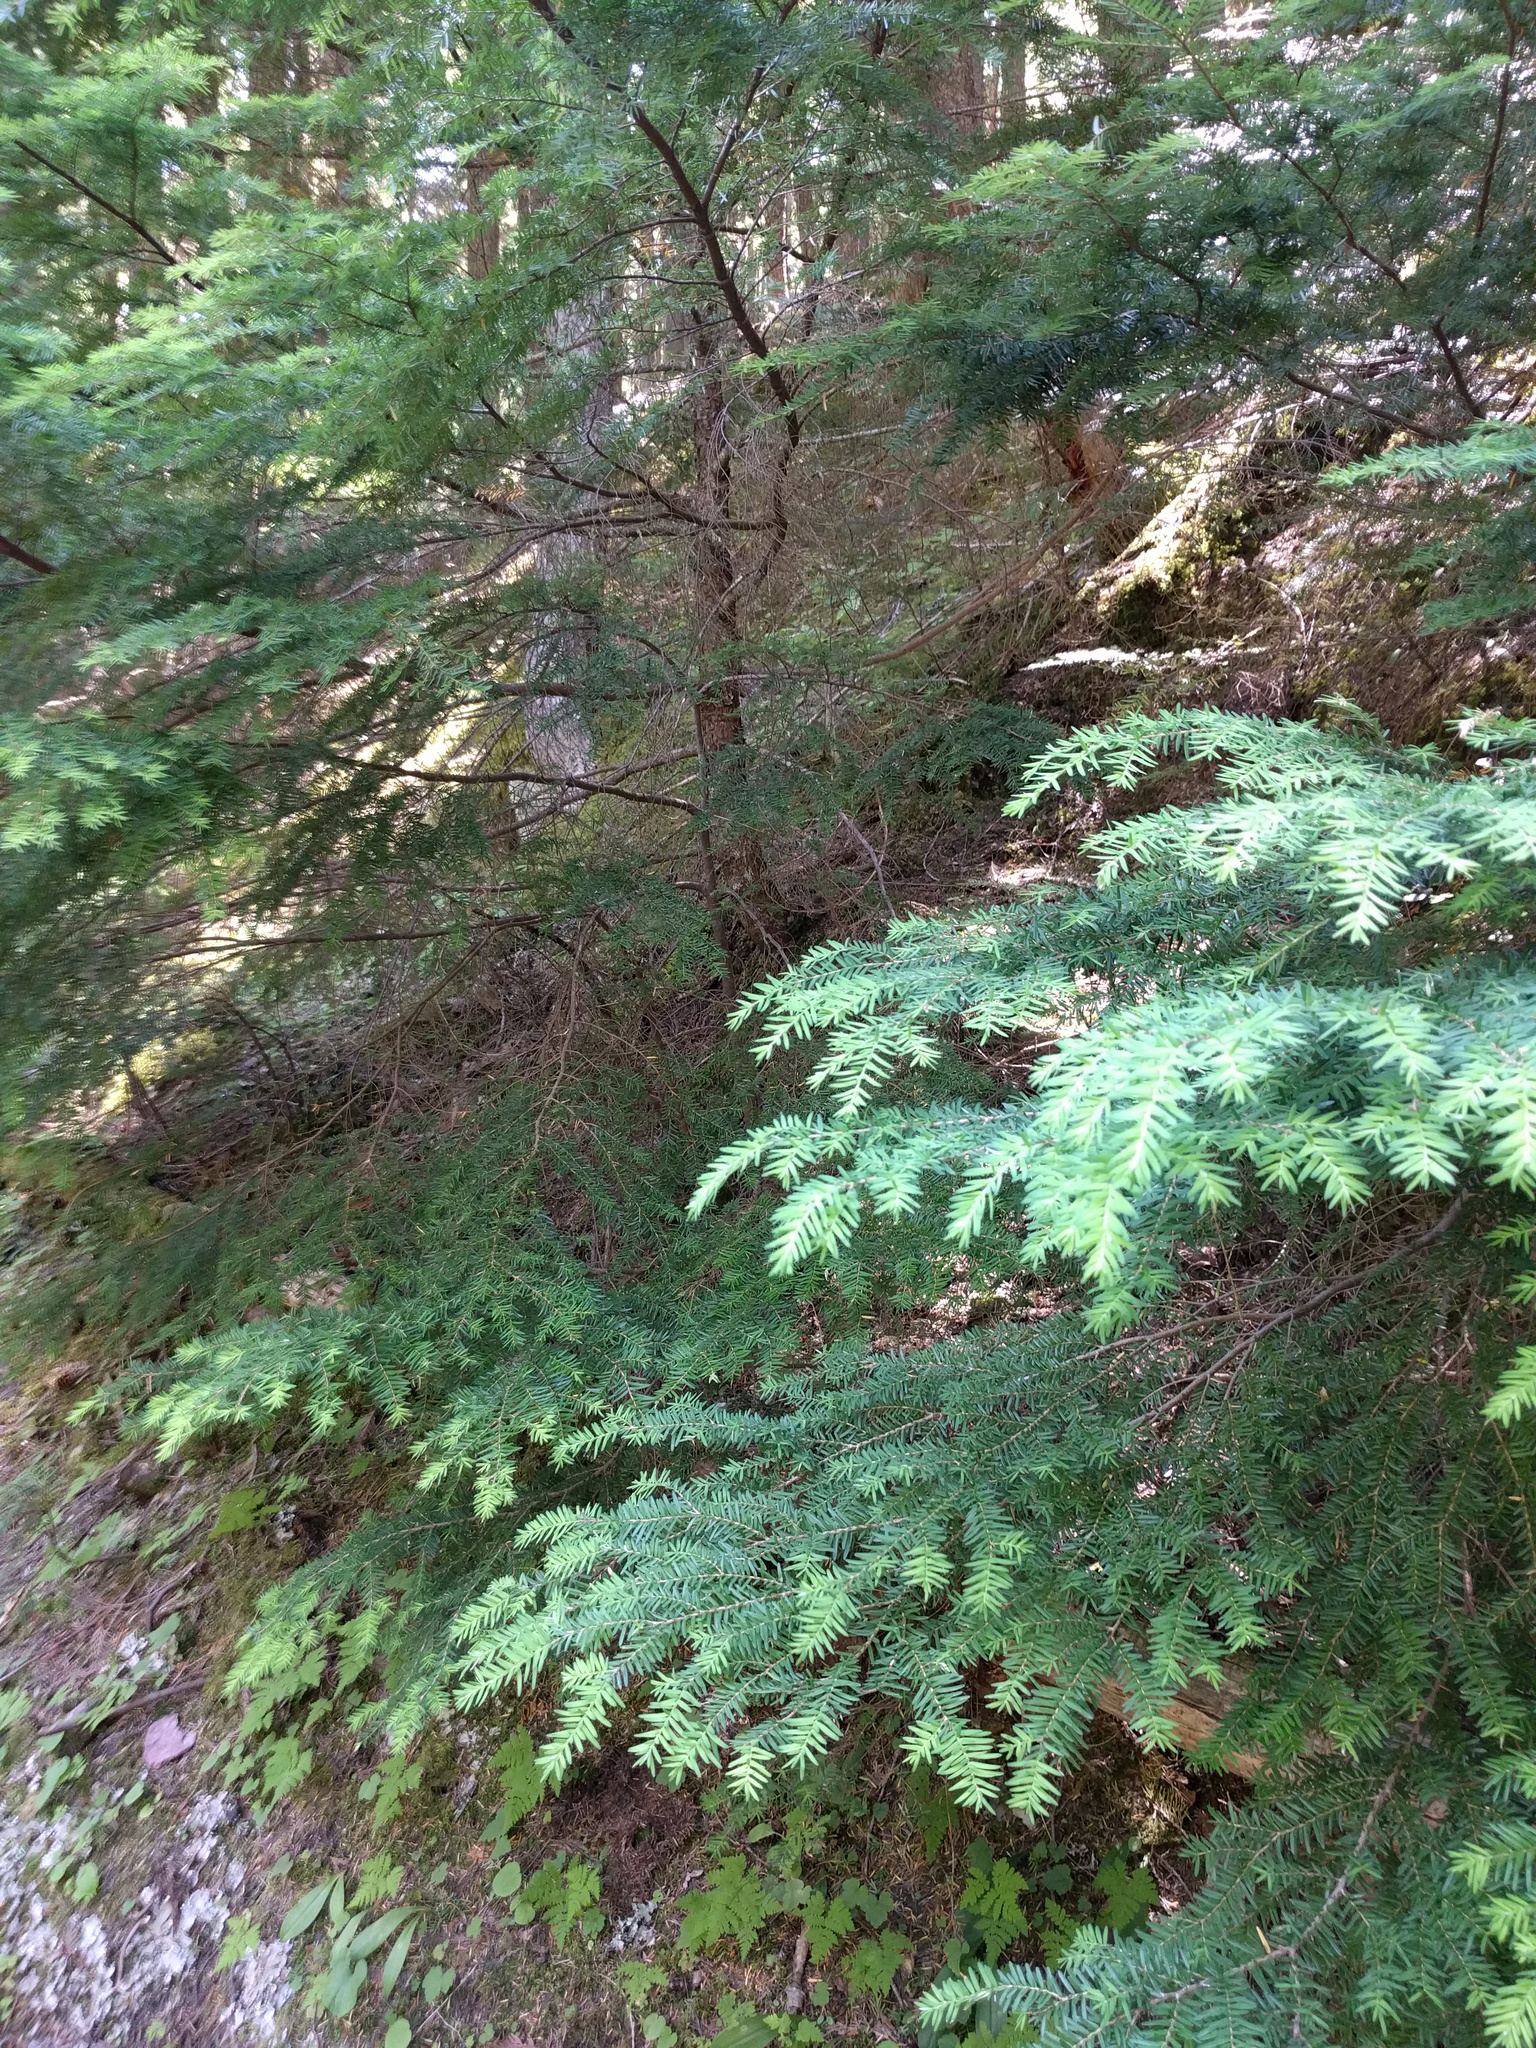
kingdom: Plantae
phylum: Tracheophyta
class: Pinopsida
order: Pinales
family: Pinaceae
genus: Tsuga
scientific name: Tsuga heterophylla
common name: Western hemlock
